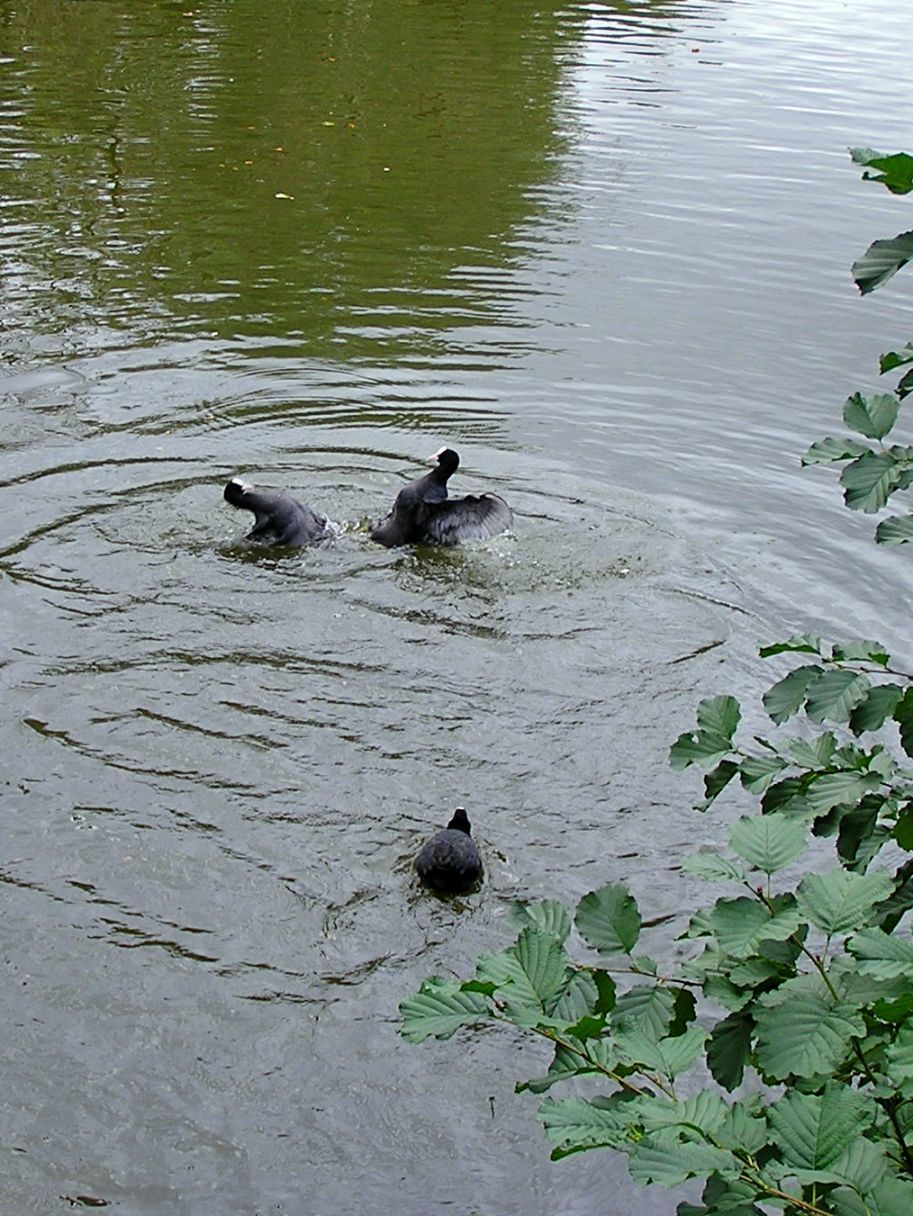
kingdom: Animalia
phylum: Chordata
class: Aves
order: Gruiformes
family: Rallidae
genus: Fulica
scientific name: Fulica atra
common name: Eurasian coot
